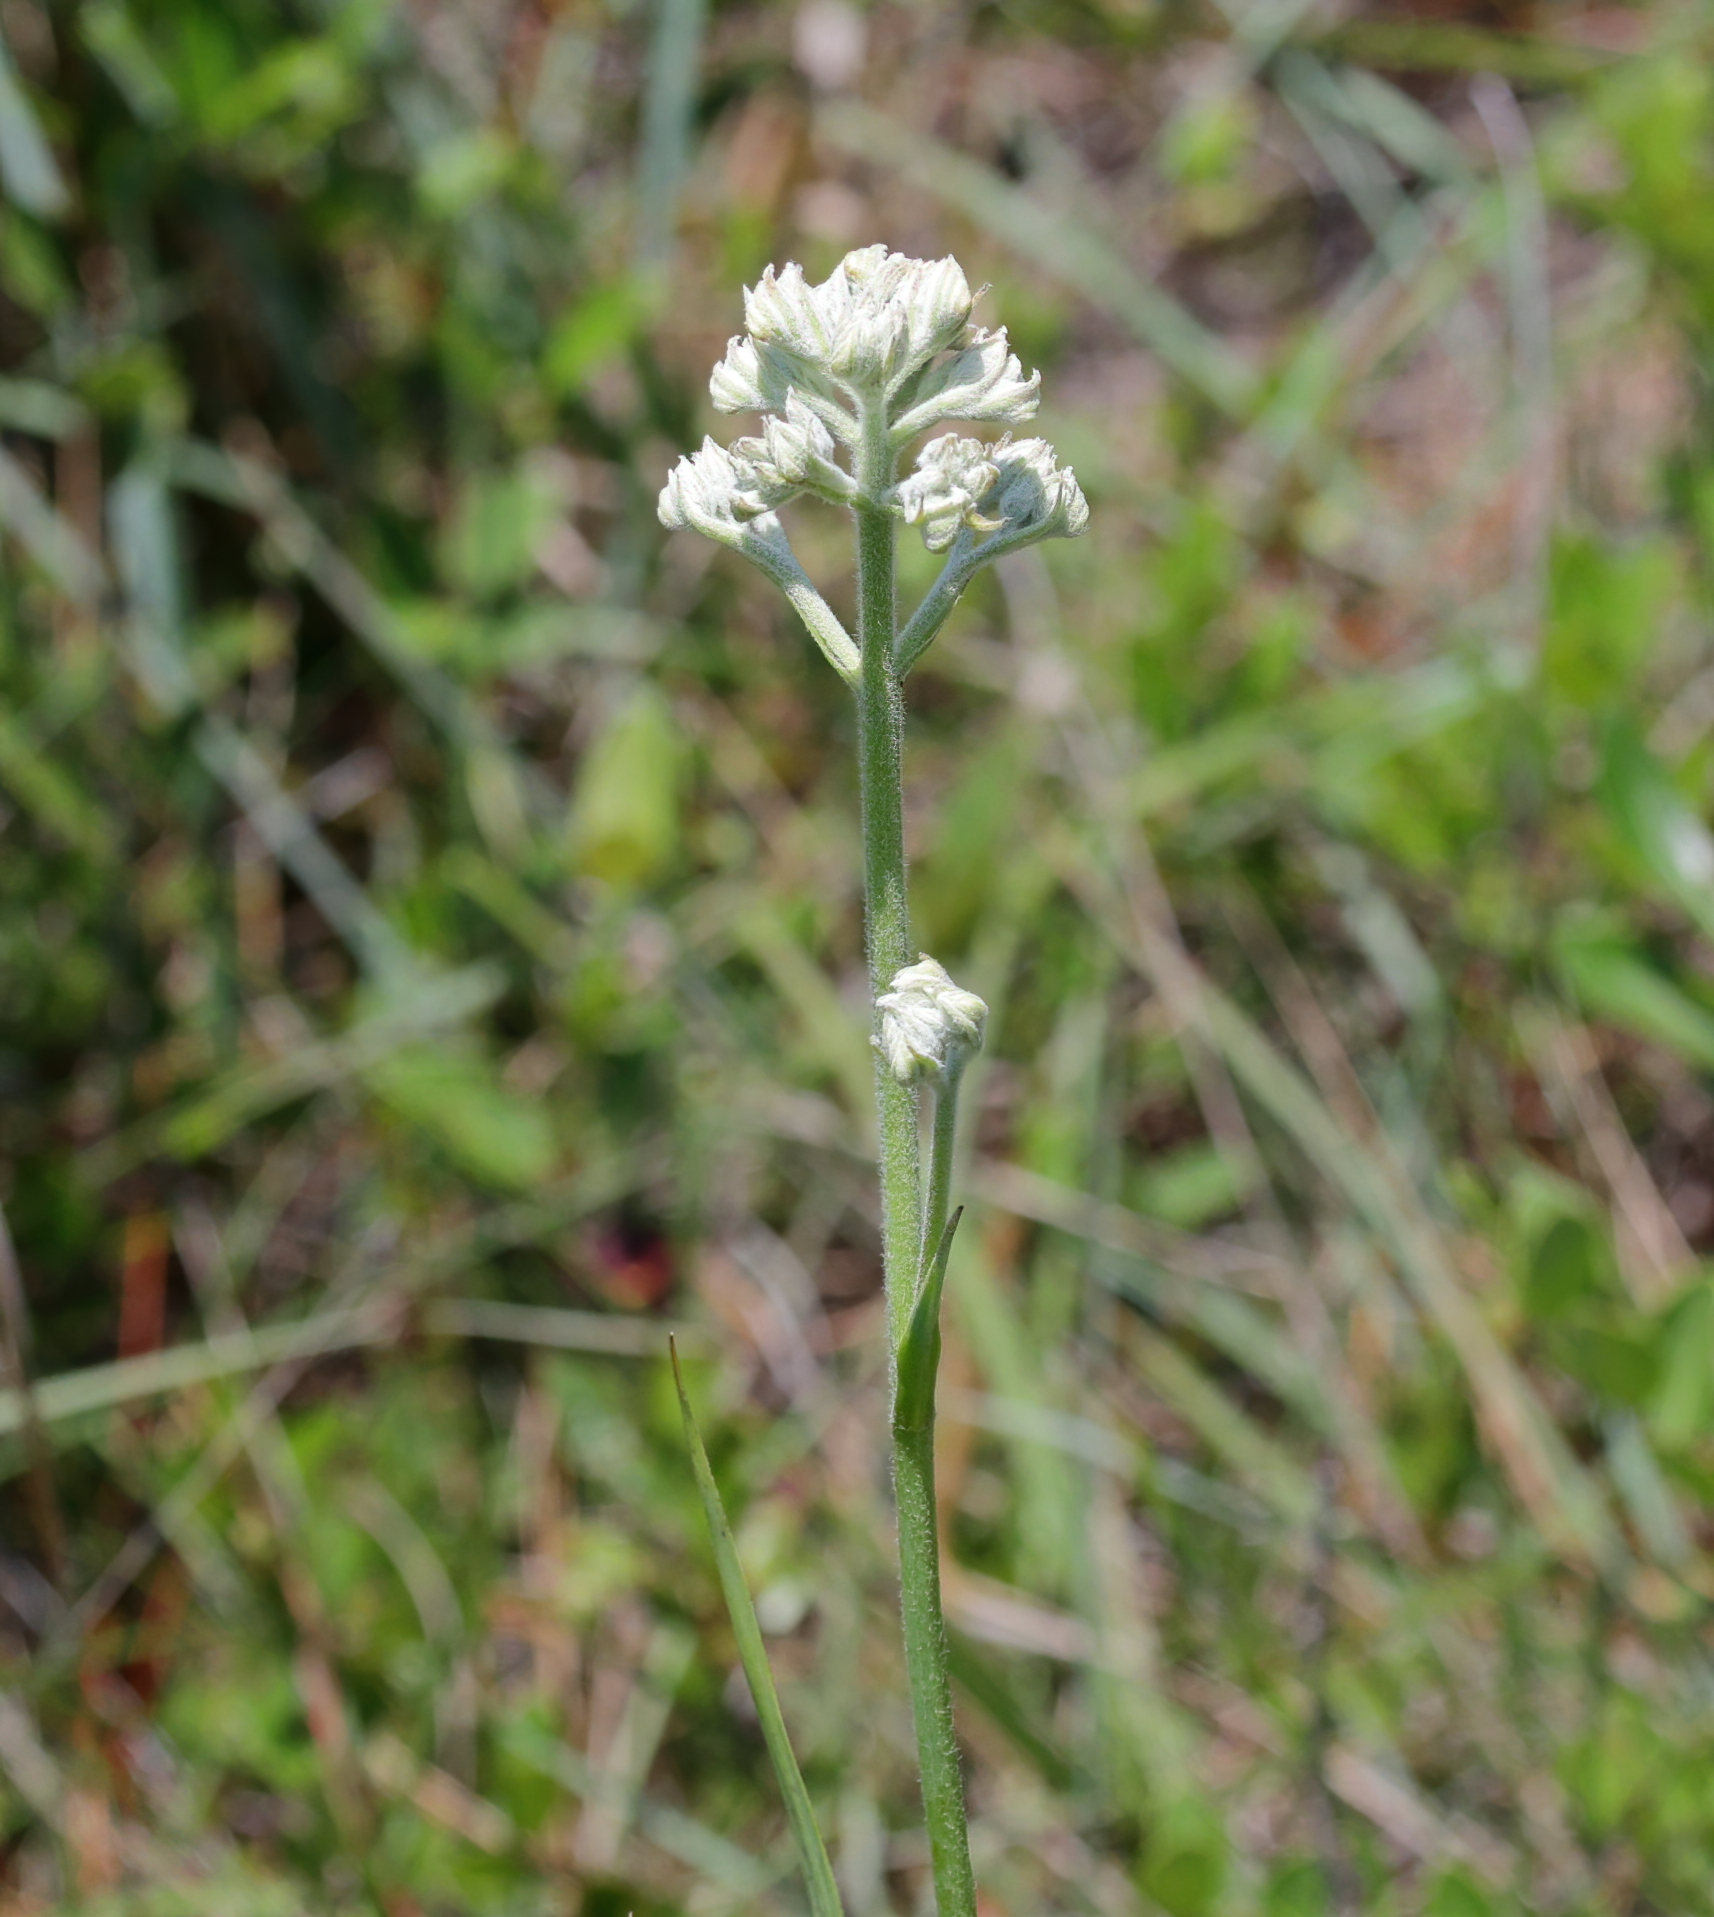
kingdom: Plantae
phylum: Tracheophyta
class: Liliopsida
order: Commelinales
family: Haemodoraceae
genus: Lachnanthes
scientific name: Lachnanthes caroliana
